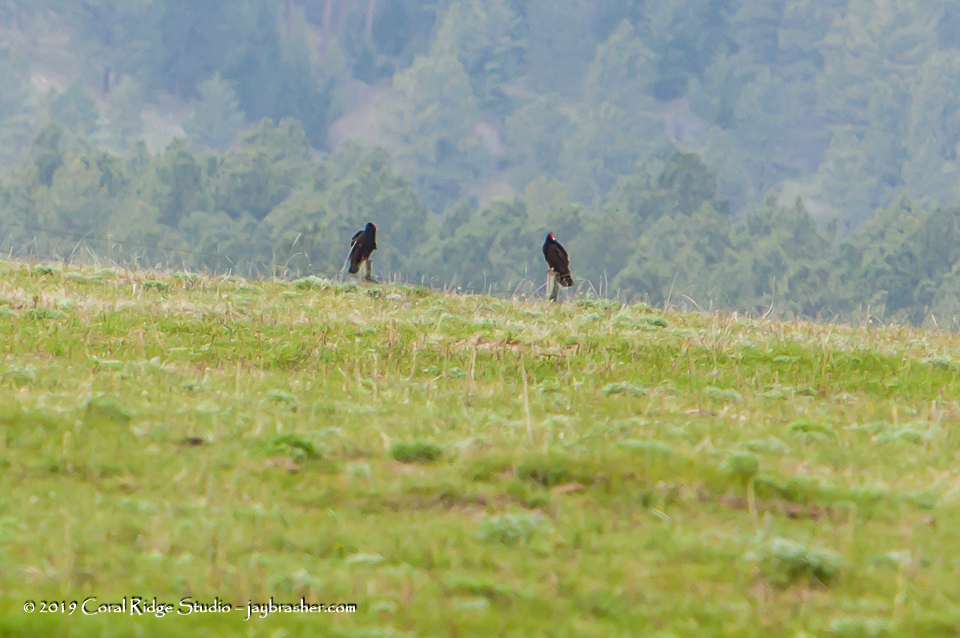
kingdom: Animalia
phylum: Chordata
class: Aves
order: Accipitriformes
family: Cathartidae
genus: Cathartes
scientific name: Cathartes aura
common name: Turkey vulture
